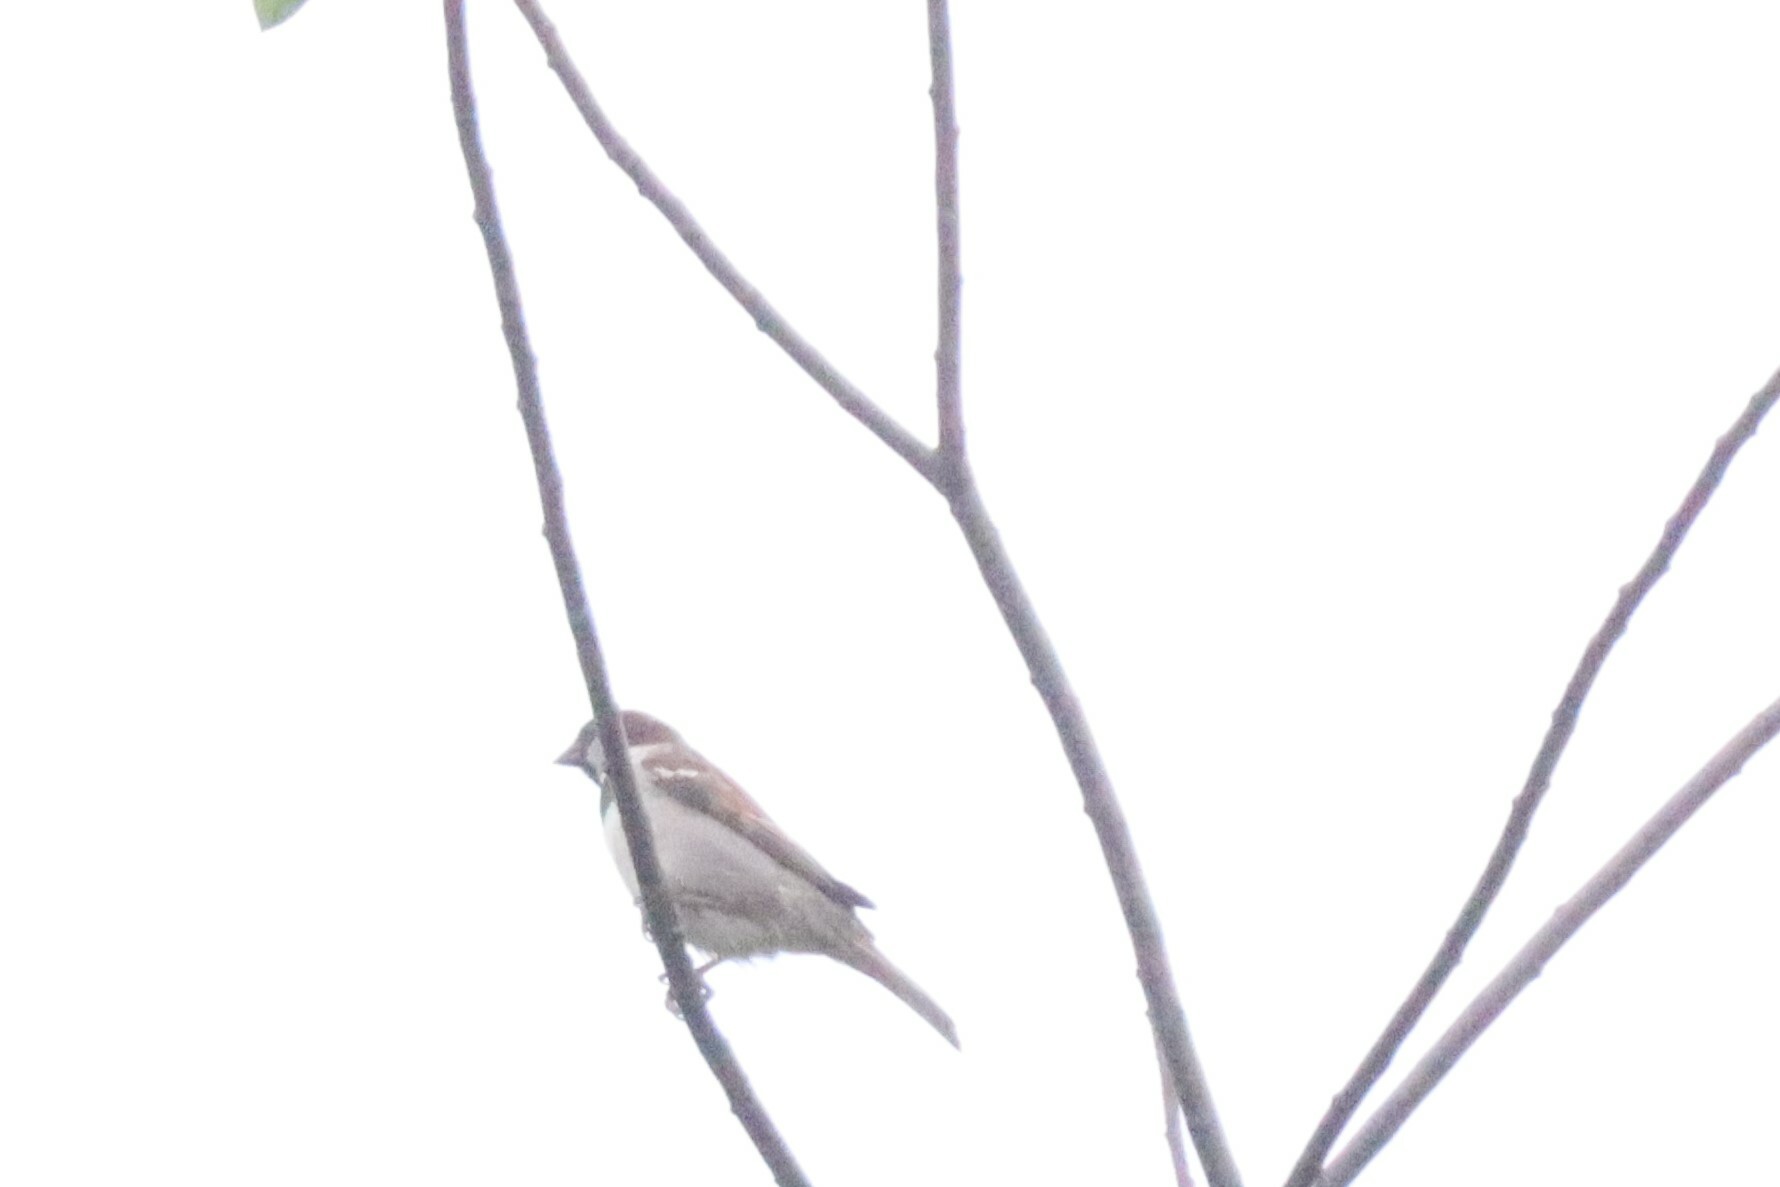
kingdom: Animalia
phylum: Chordata
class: Aves
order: Passeriformes
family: Passeridae
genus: Passer
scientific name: Passer domesticus
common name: House sparrow
